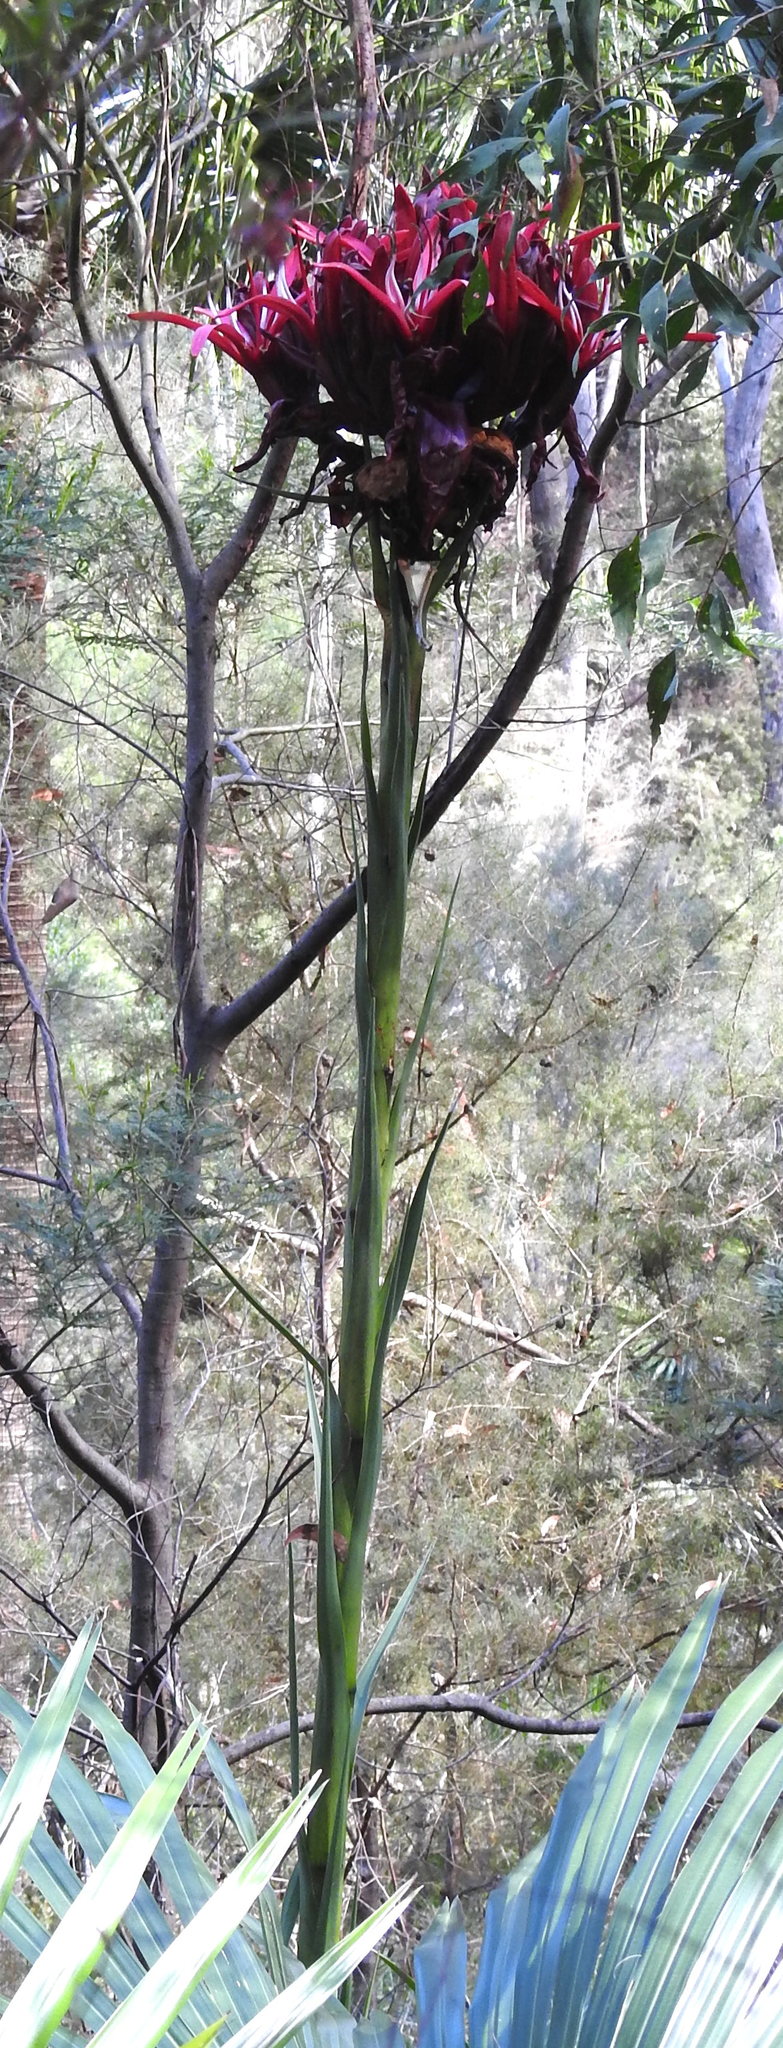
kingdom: Plantae
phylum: Tracheophyta
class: Liliopsida
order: Asparagales
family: Doryanthaceae
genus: Doryanthes
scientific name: Doryanthes excelsa
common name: Giant-lily
